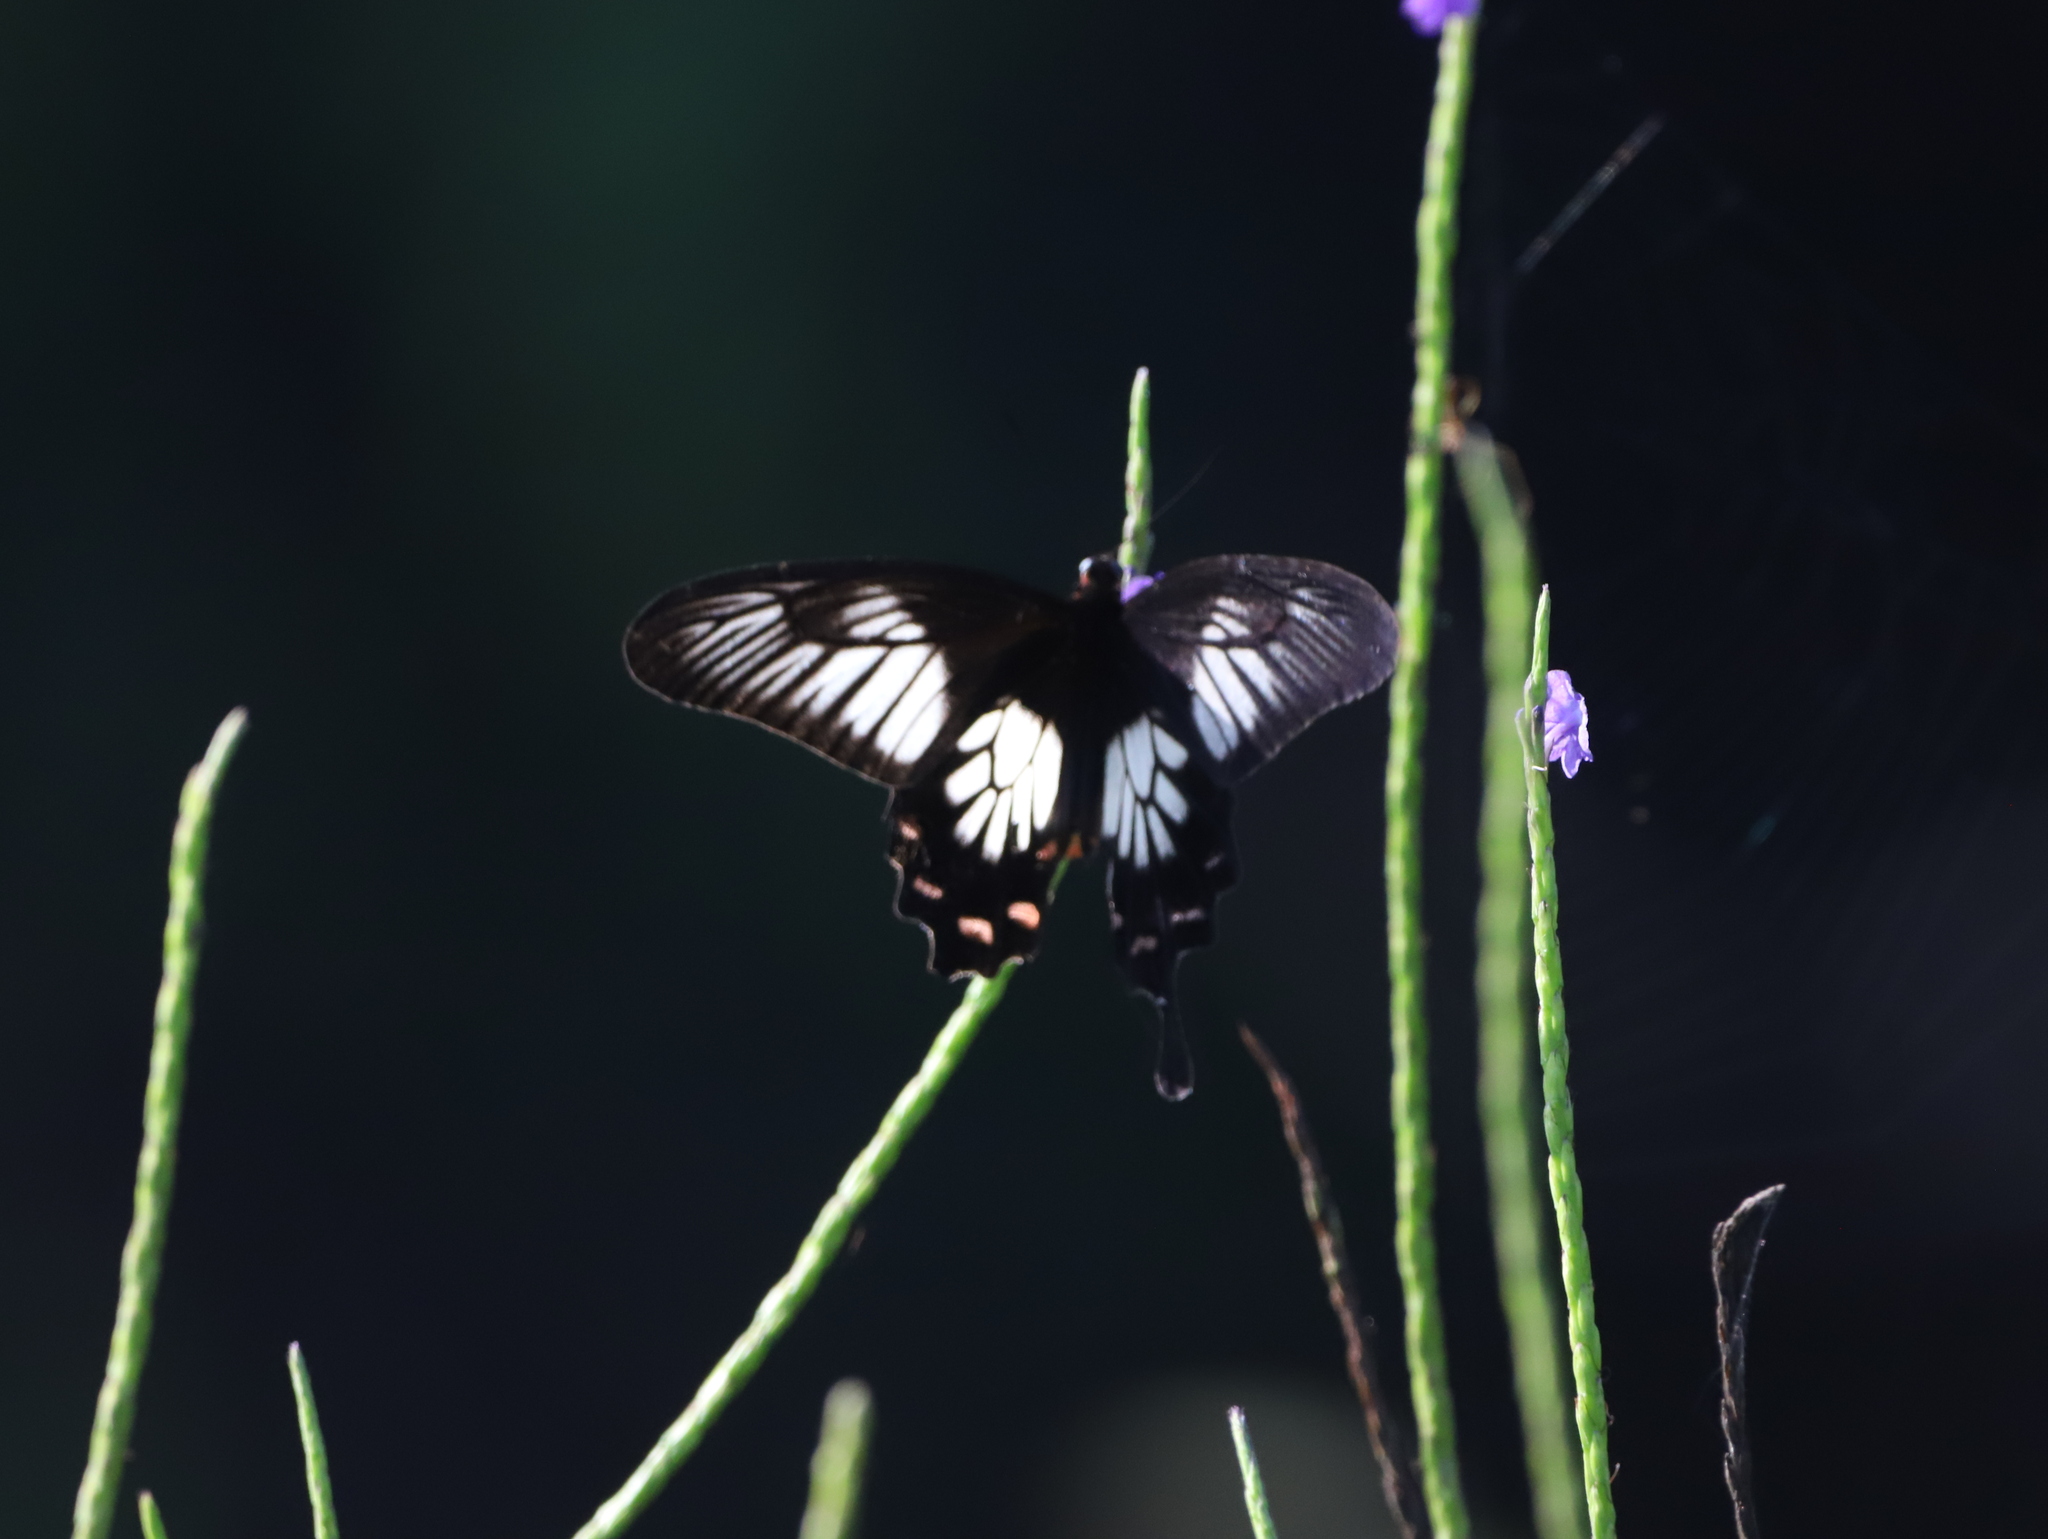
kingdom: Animalia
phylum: Arthropoda
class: Insecta
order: Lepidoptera
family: Papilionidae
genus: Pachliopta
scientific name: Pachliopta jophon
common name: Malabar rose
